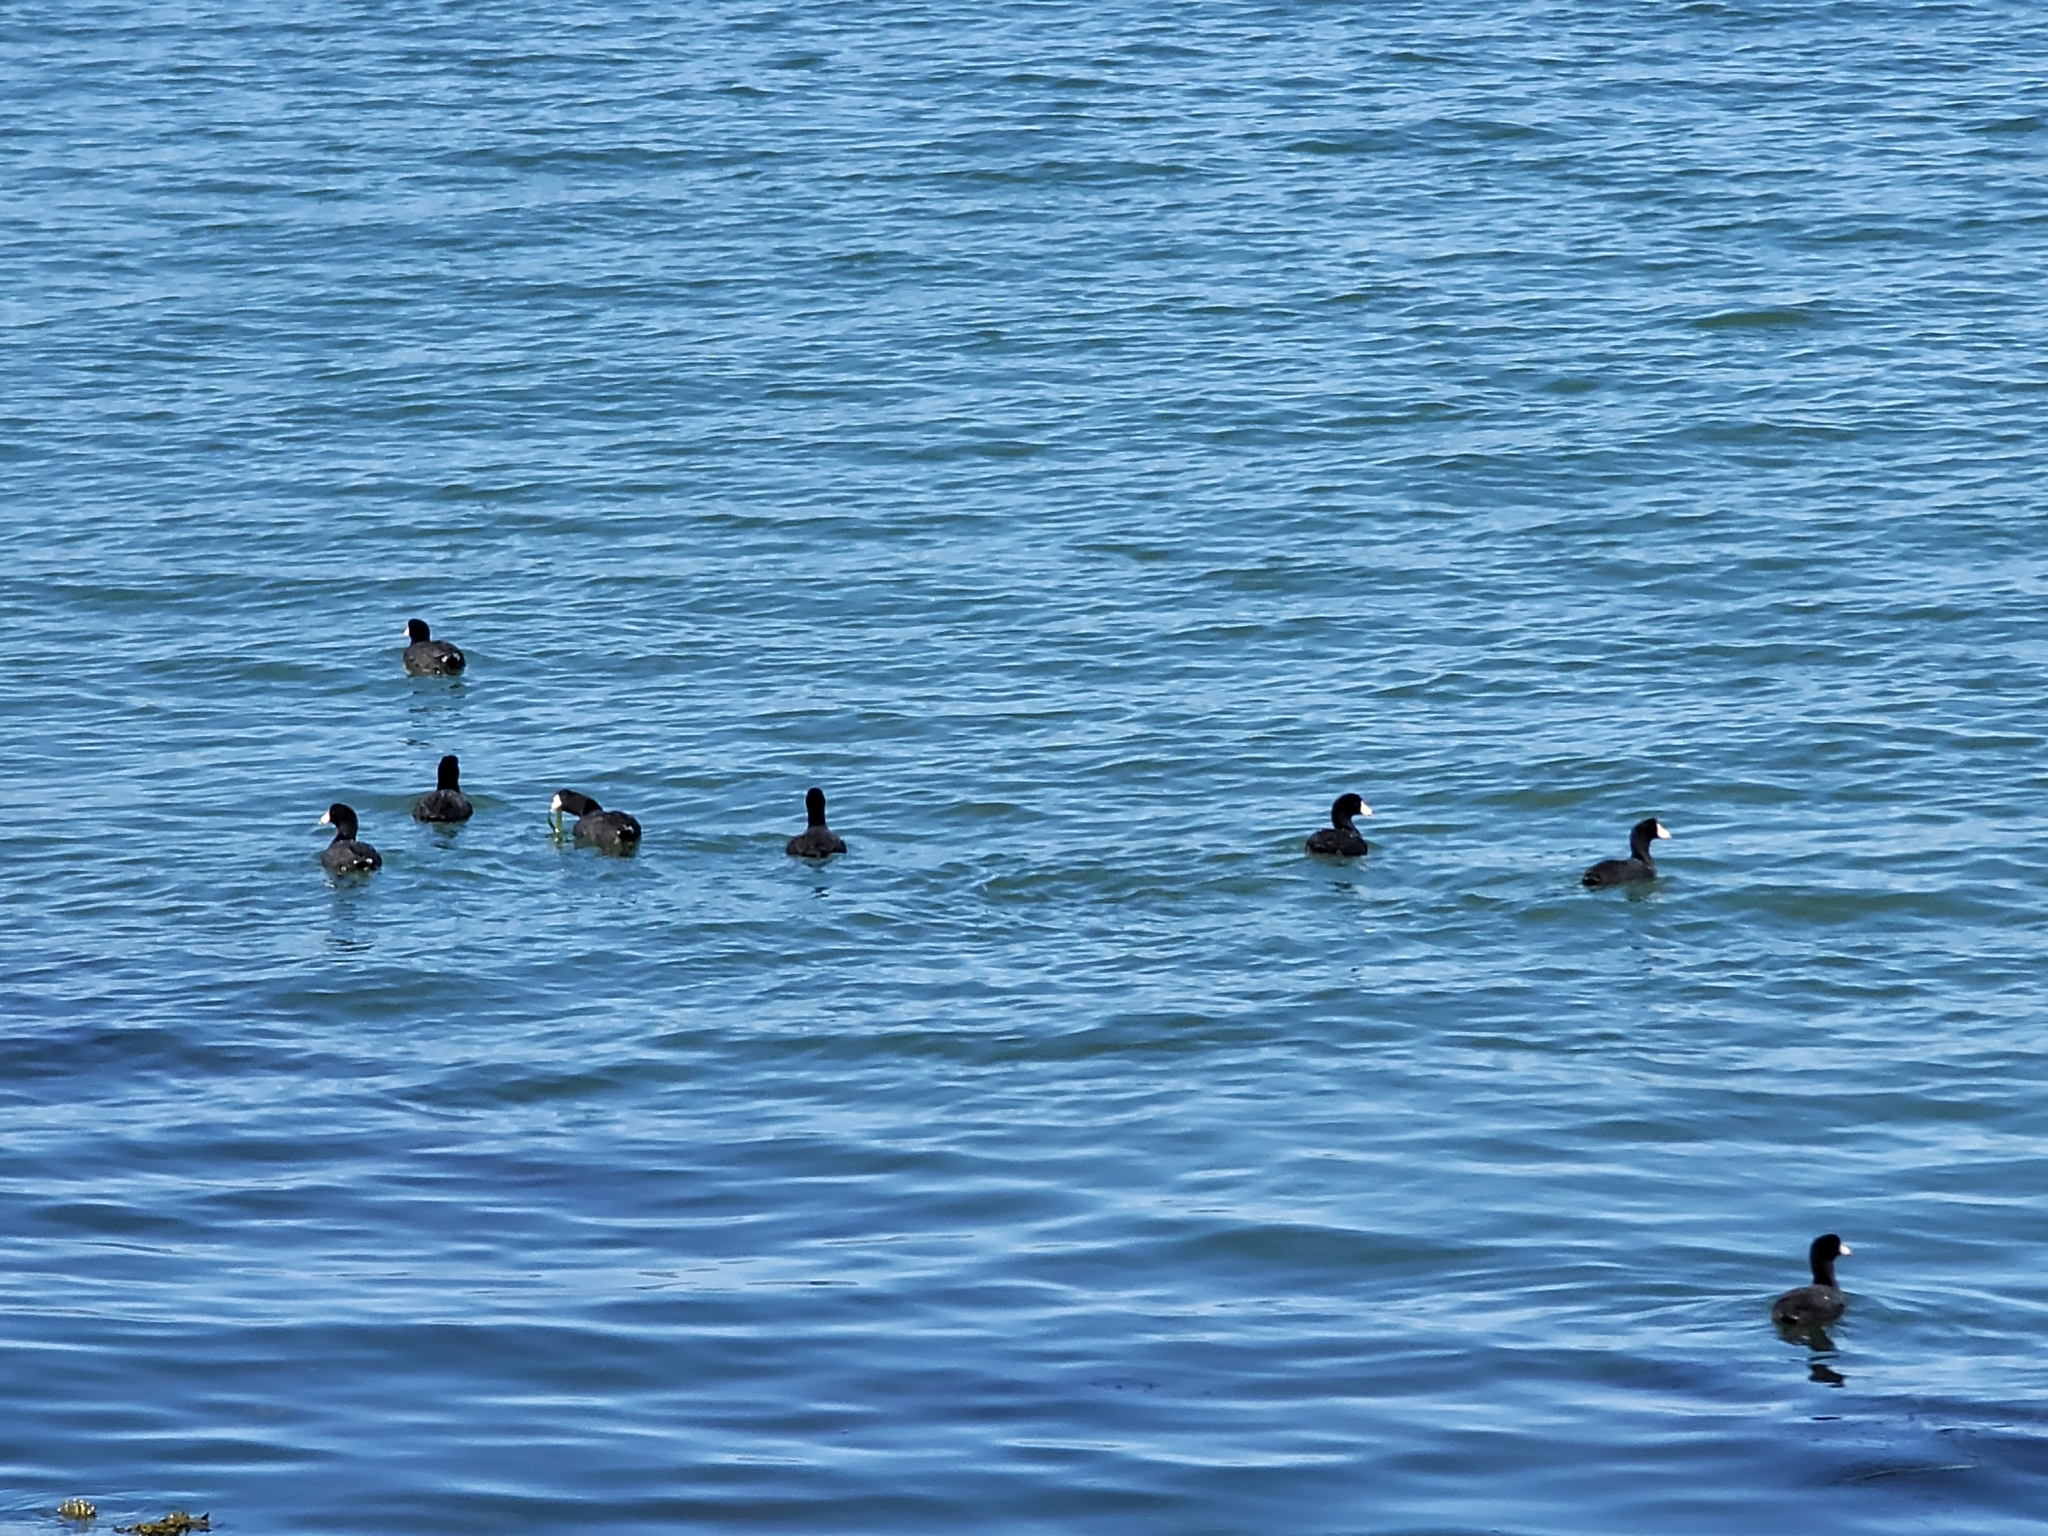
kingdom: Animalia
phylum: Chordata
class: Aves
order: Gruiformes
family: Rallidae
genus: Fulica
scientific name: Fulica americana
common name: American coot
